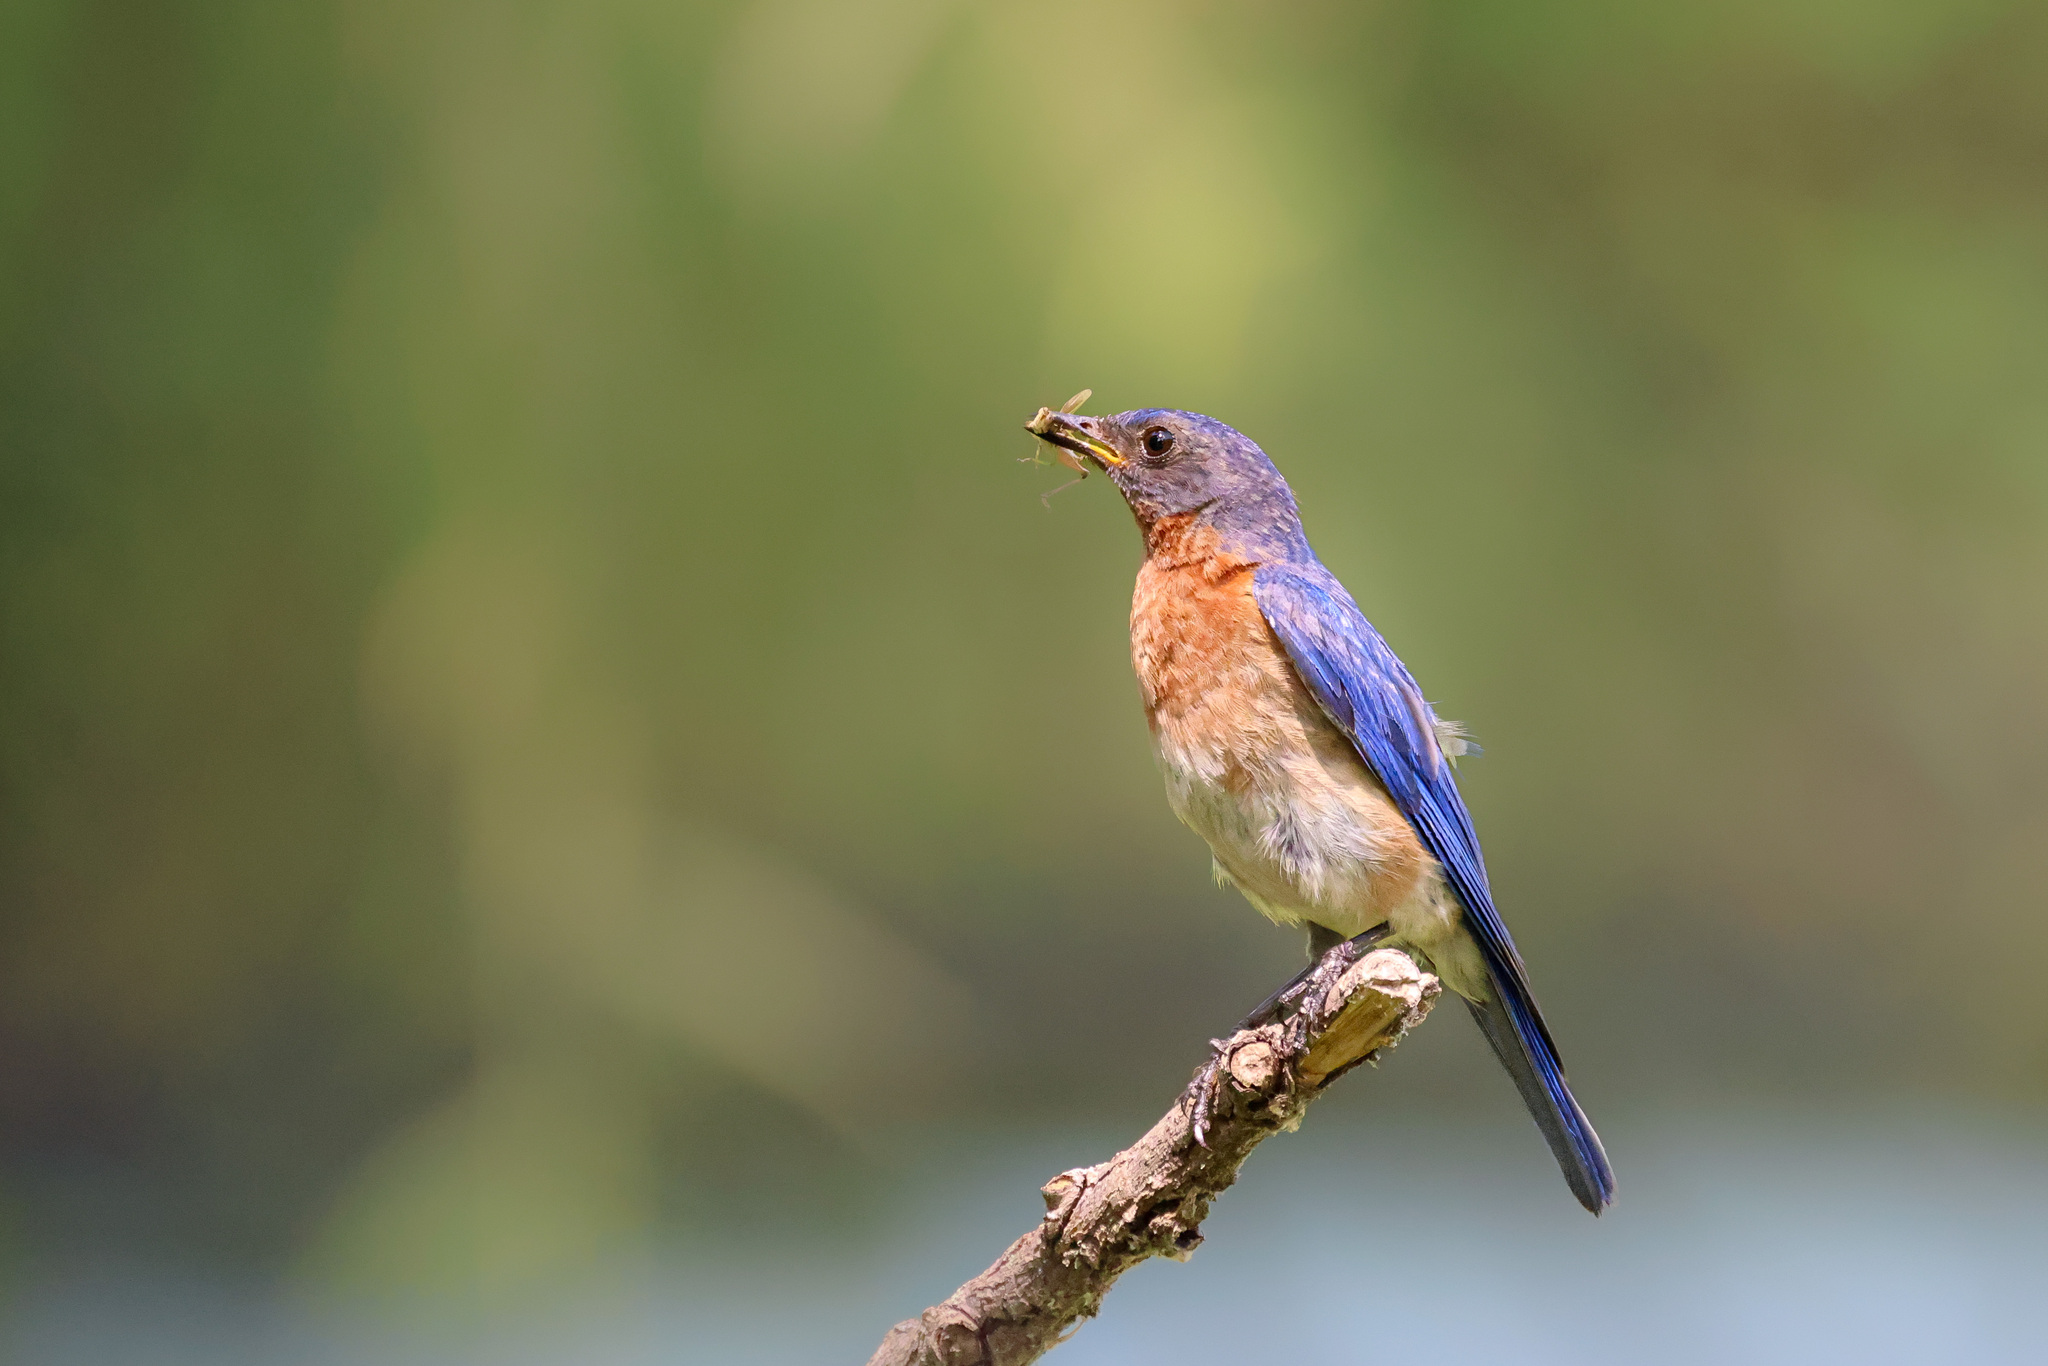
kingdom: Animalia
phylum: Chordata
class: Aves
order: Passeriformes
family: Turdidae
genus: Sialia
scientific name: Sialia sialis
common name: Eastern bluebird
